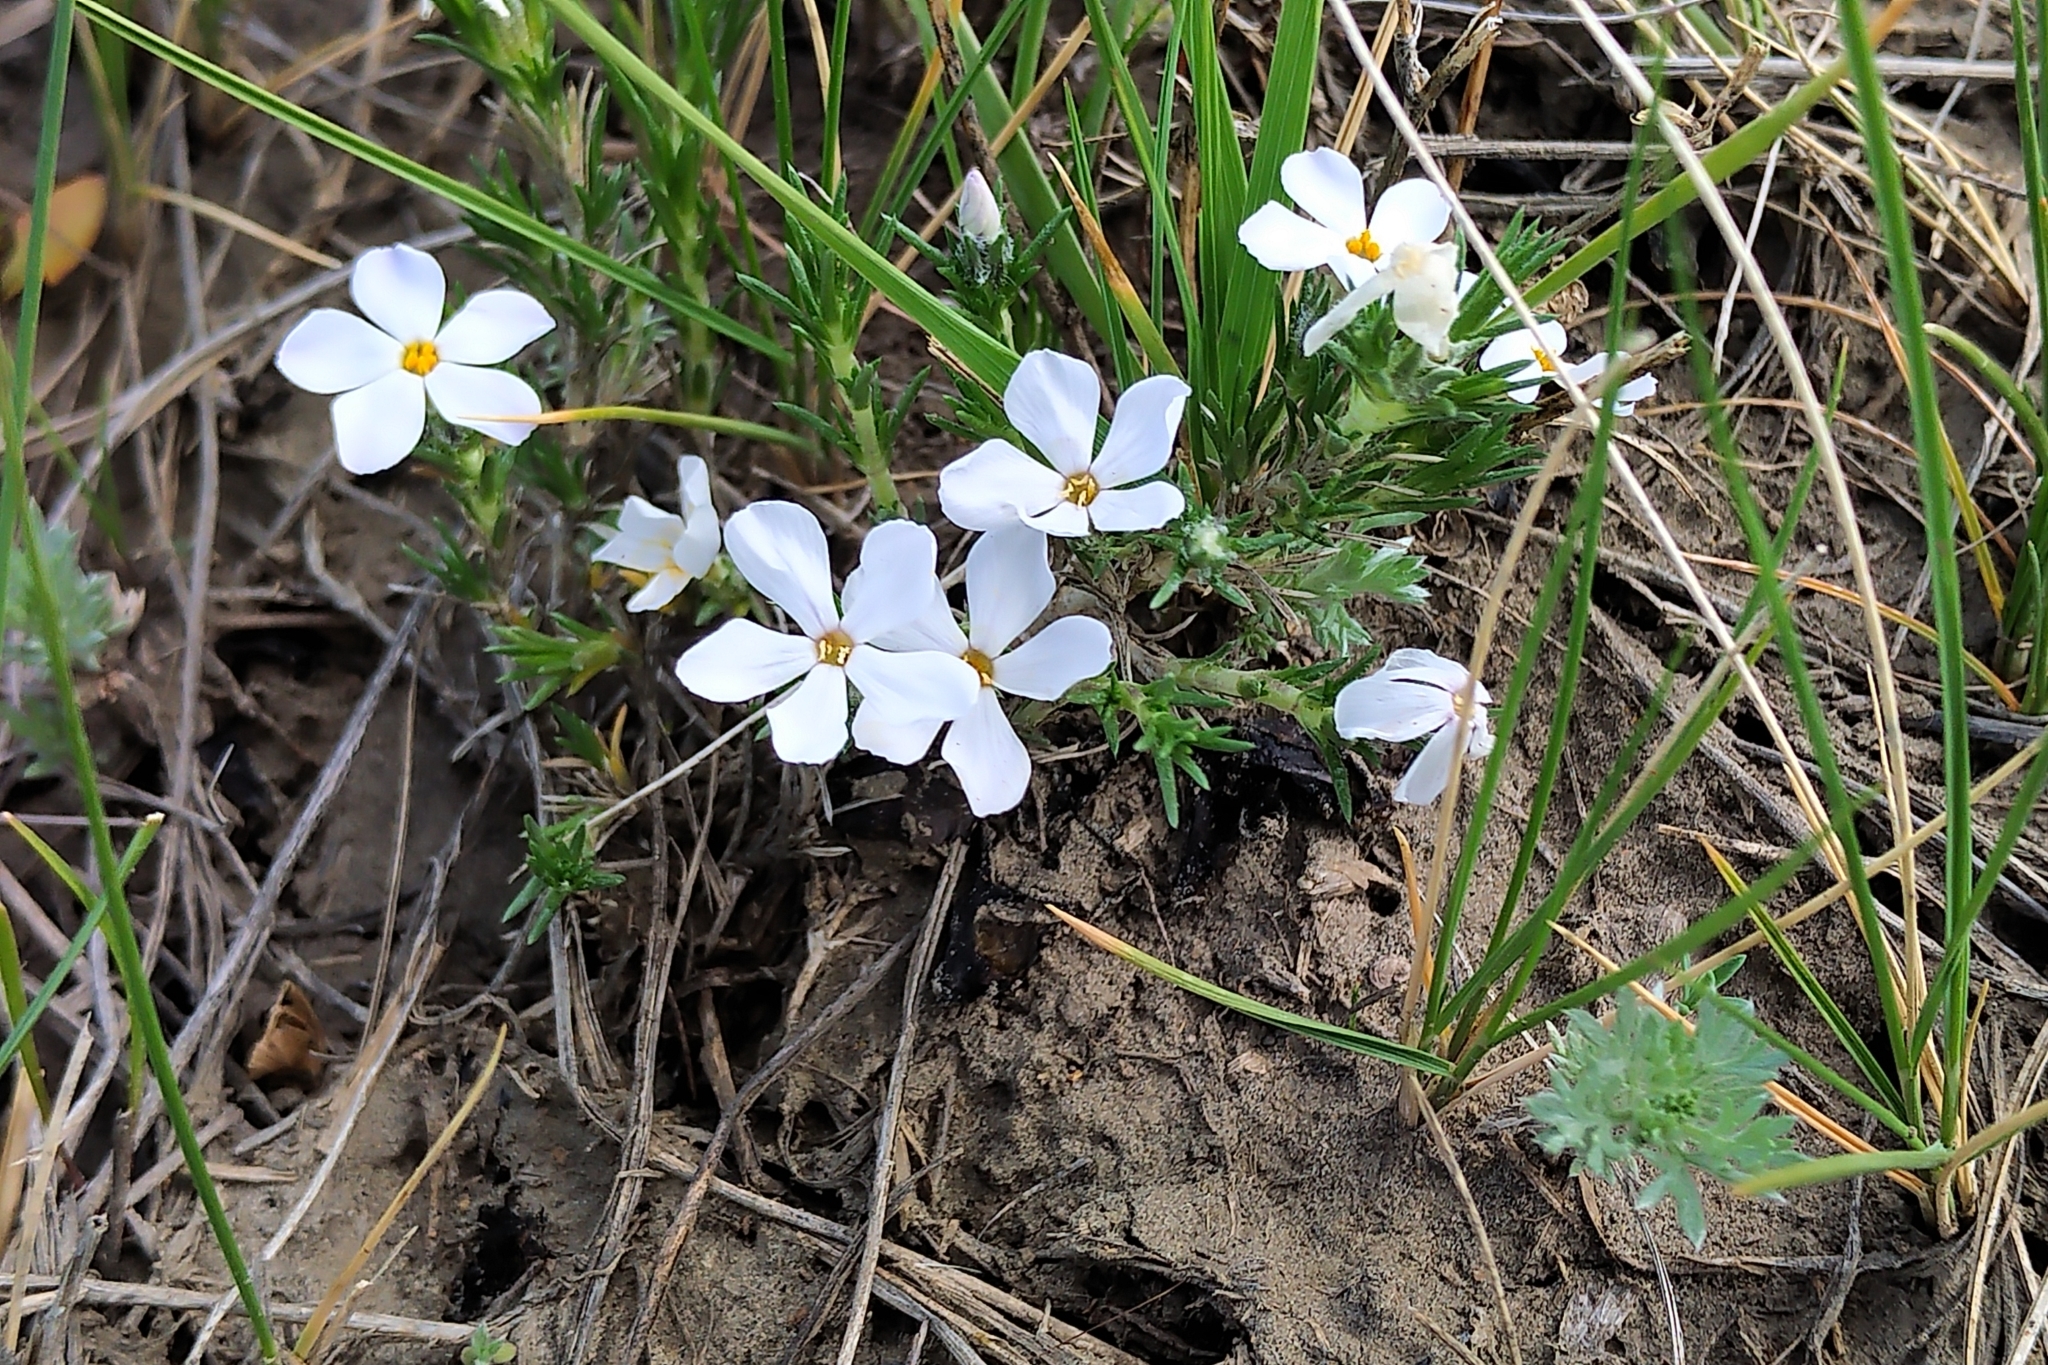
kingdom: Plantae
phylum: Tracheophyta
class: Magnoliopsida
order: Ericales
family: Polemoniaceae
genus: Phlox
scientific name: Phlox hoodii
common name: Moss phlox
